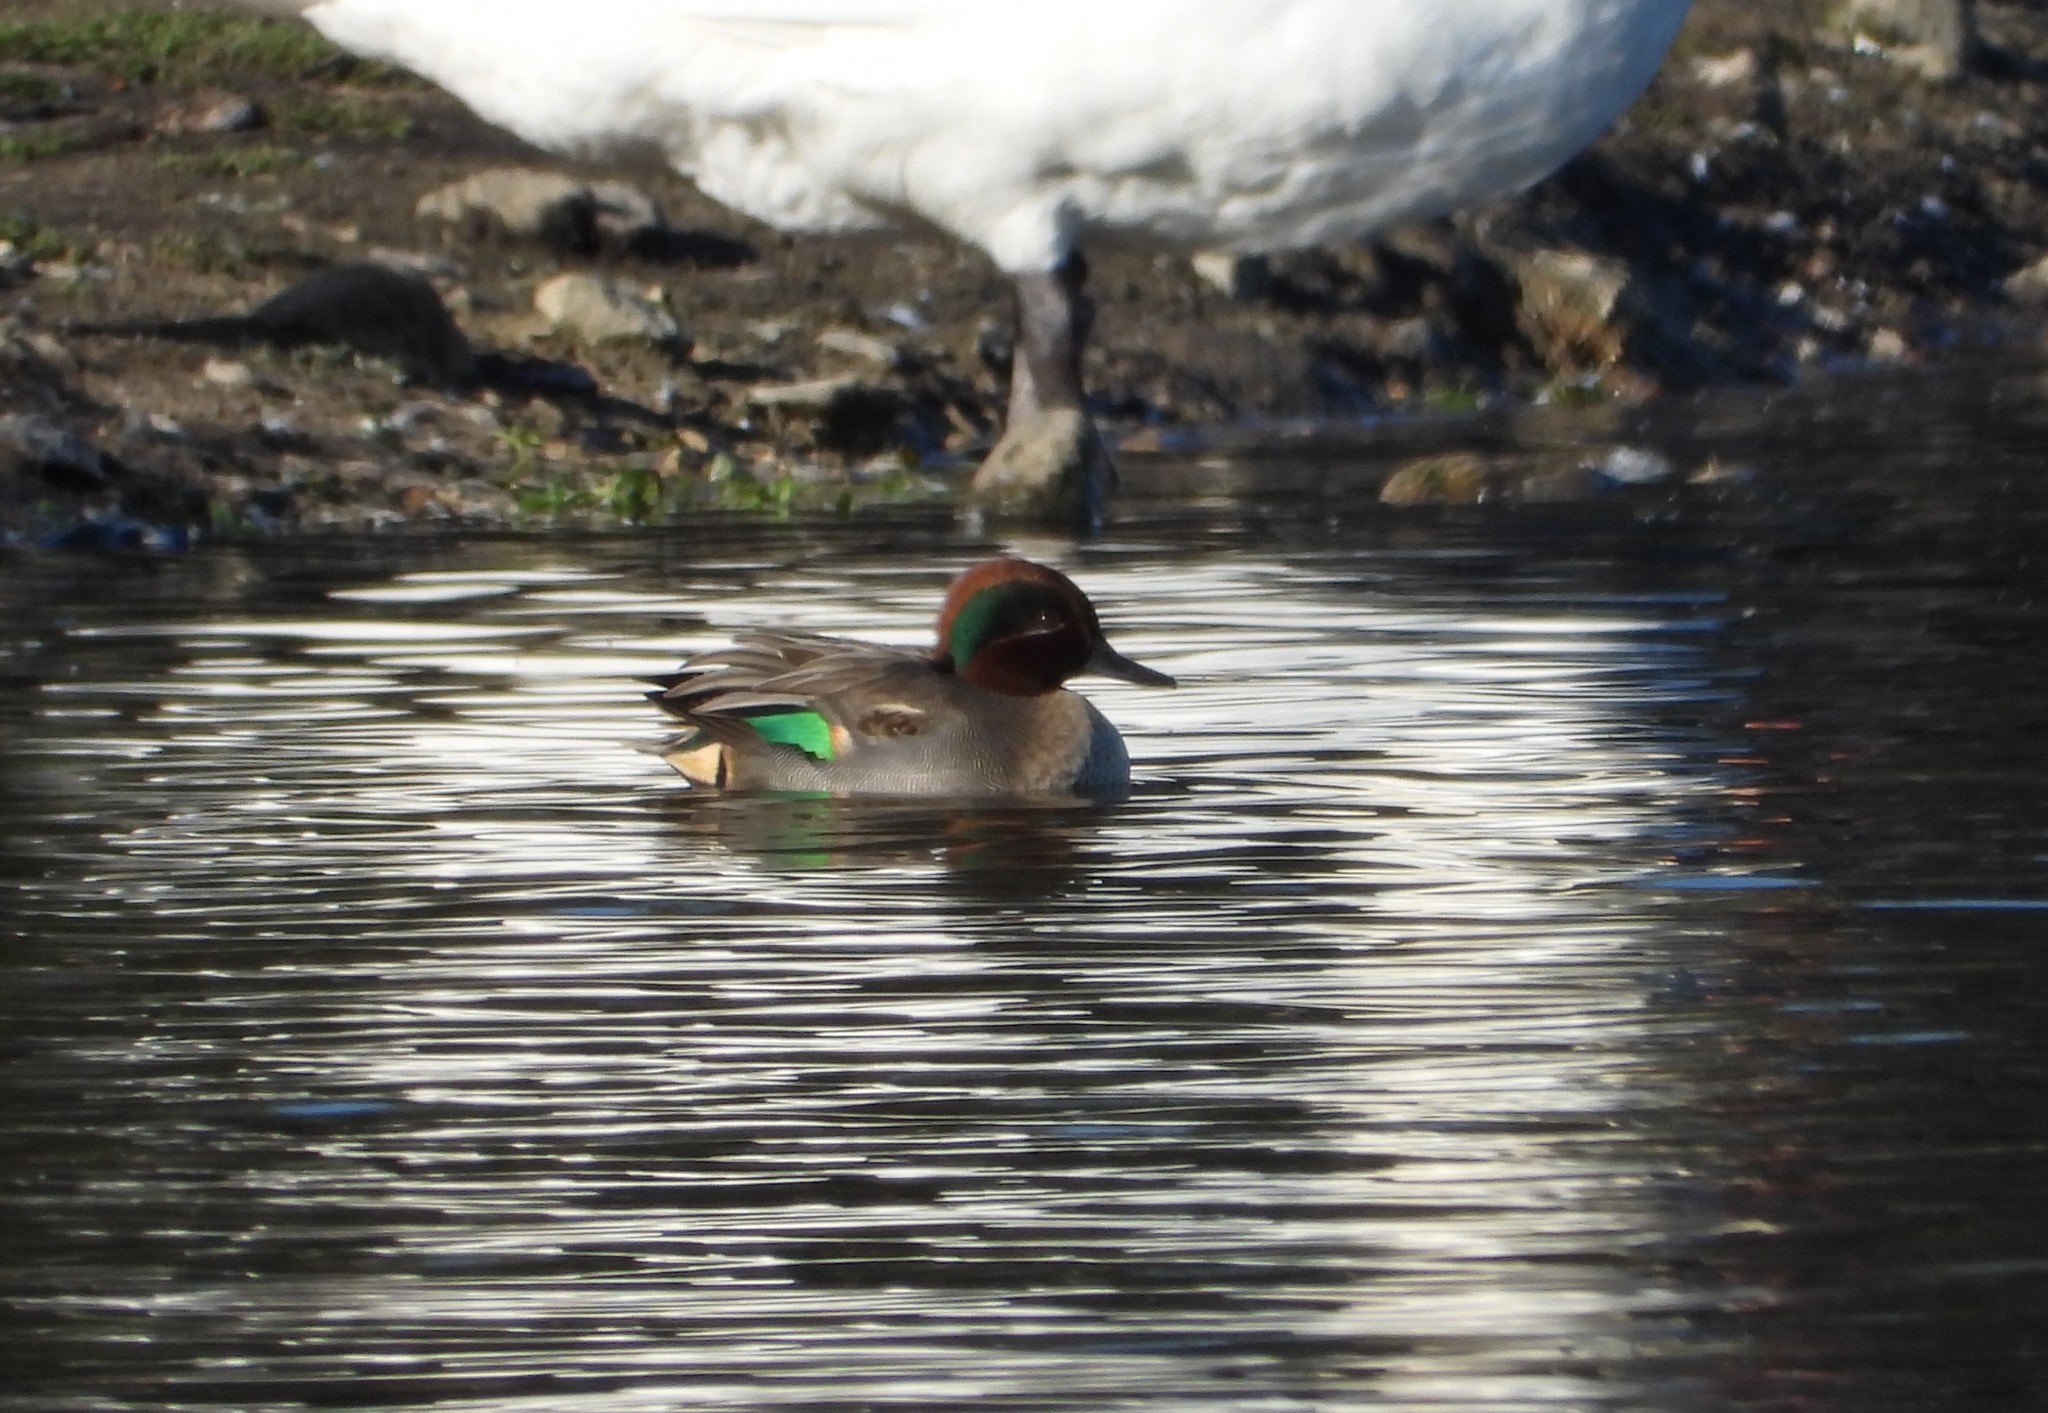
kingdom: Animalia
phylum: Chordata
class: Aves
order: Anseriformes
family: Anatidae
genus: Anas
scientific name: Anas crecca
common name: Eurasian teal
